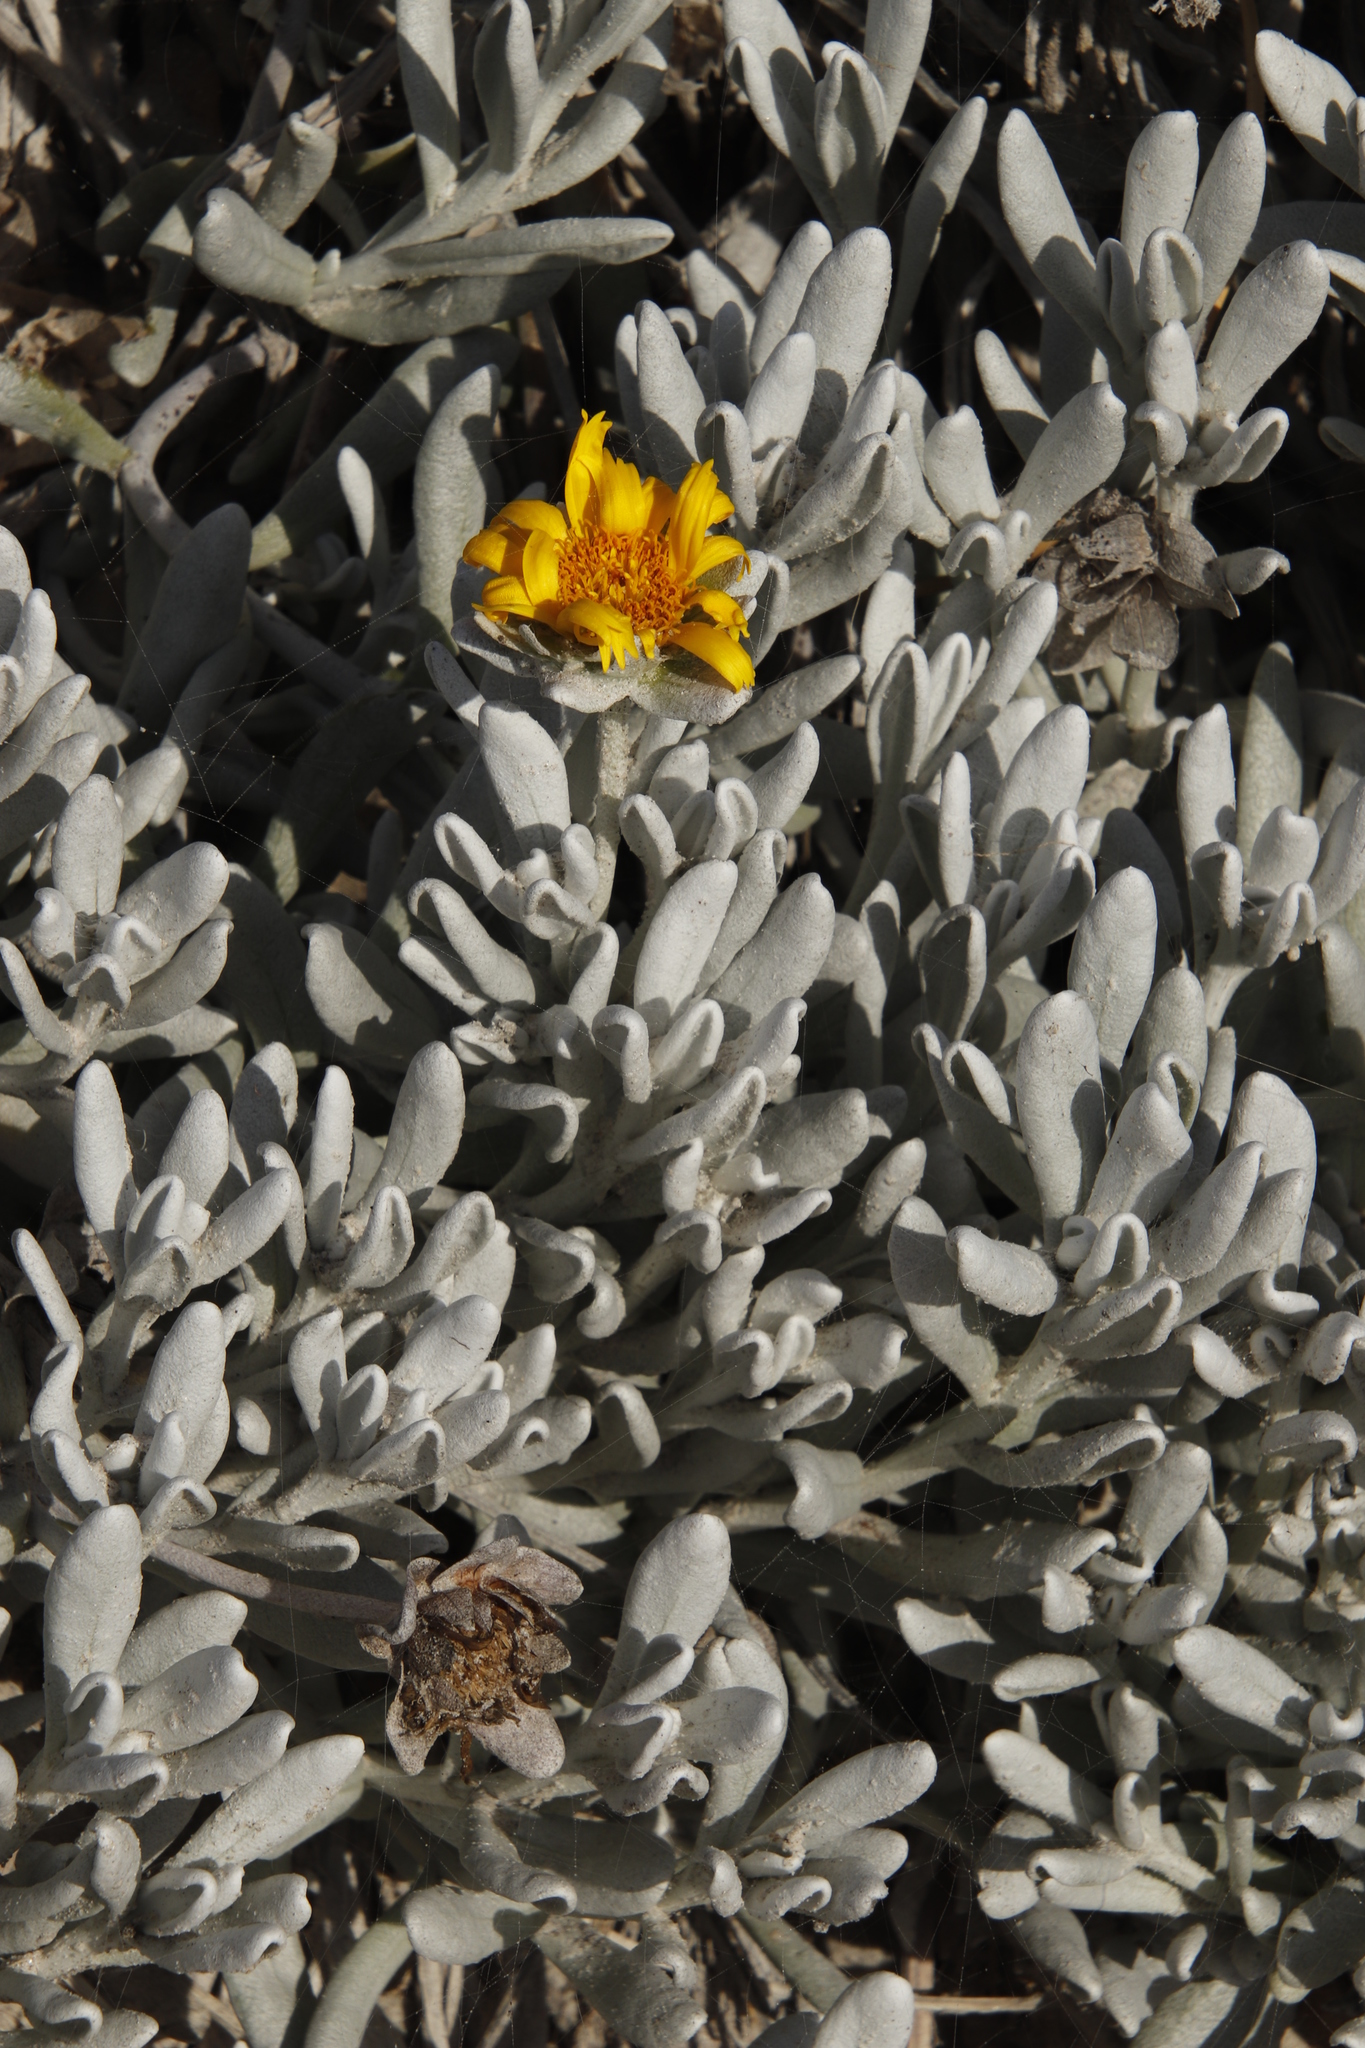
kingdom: Plantae
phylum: Tracheophyta
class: Magnoliopsida
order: Asterales
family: Asteraceae
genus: Didelta
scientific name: Didelta carnosa
